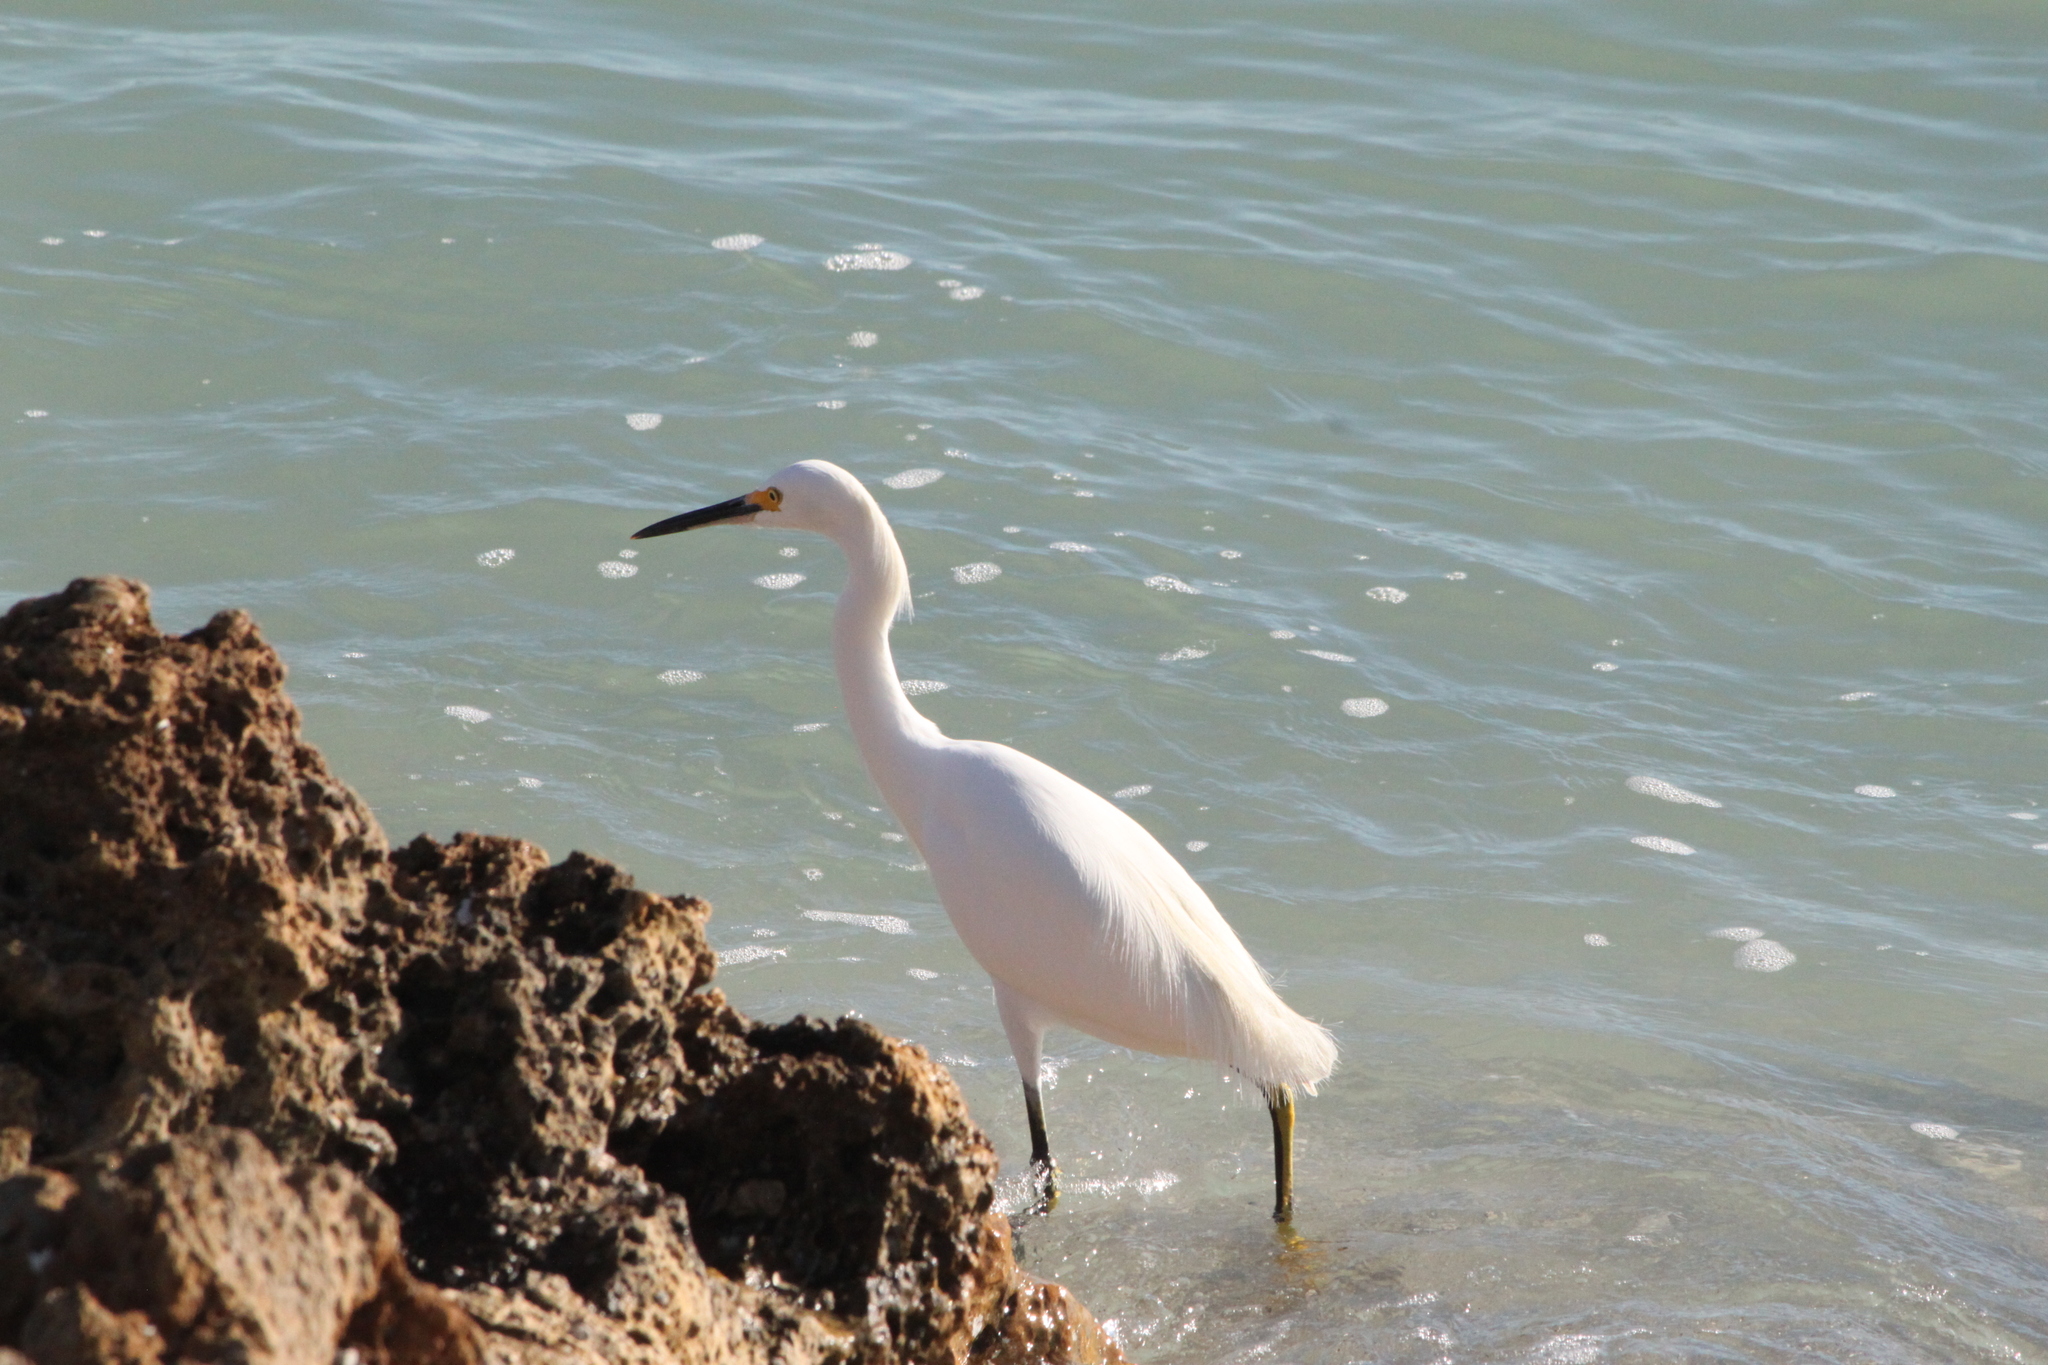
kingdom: Animalia
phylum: Chordata
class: Aves
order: Pelecaniformes
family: Ardeidae
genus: Egretta
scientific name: Egretta thula
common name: Snowy egret
